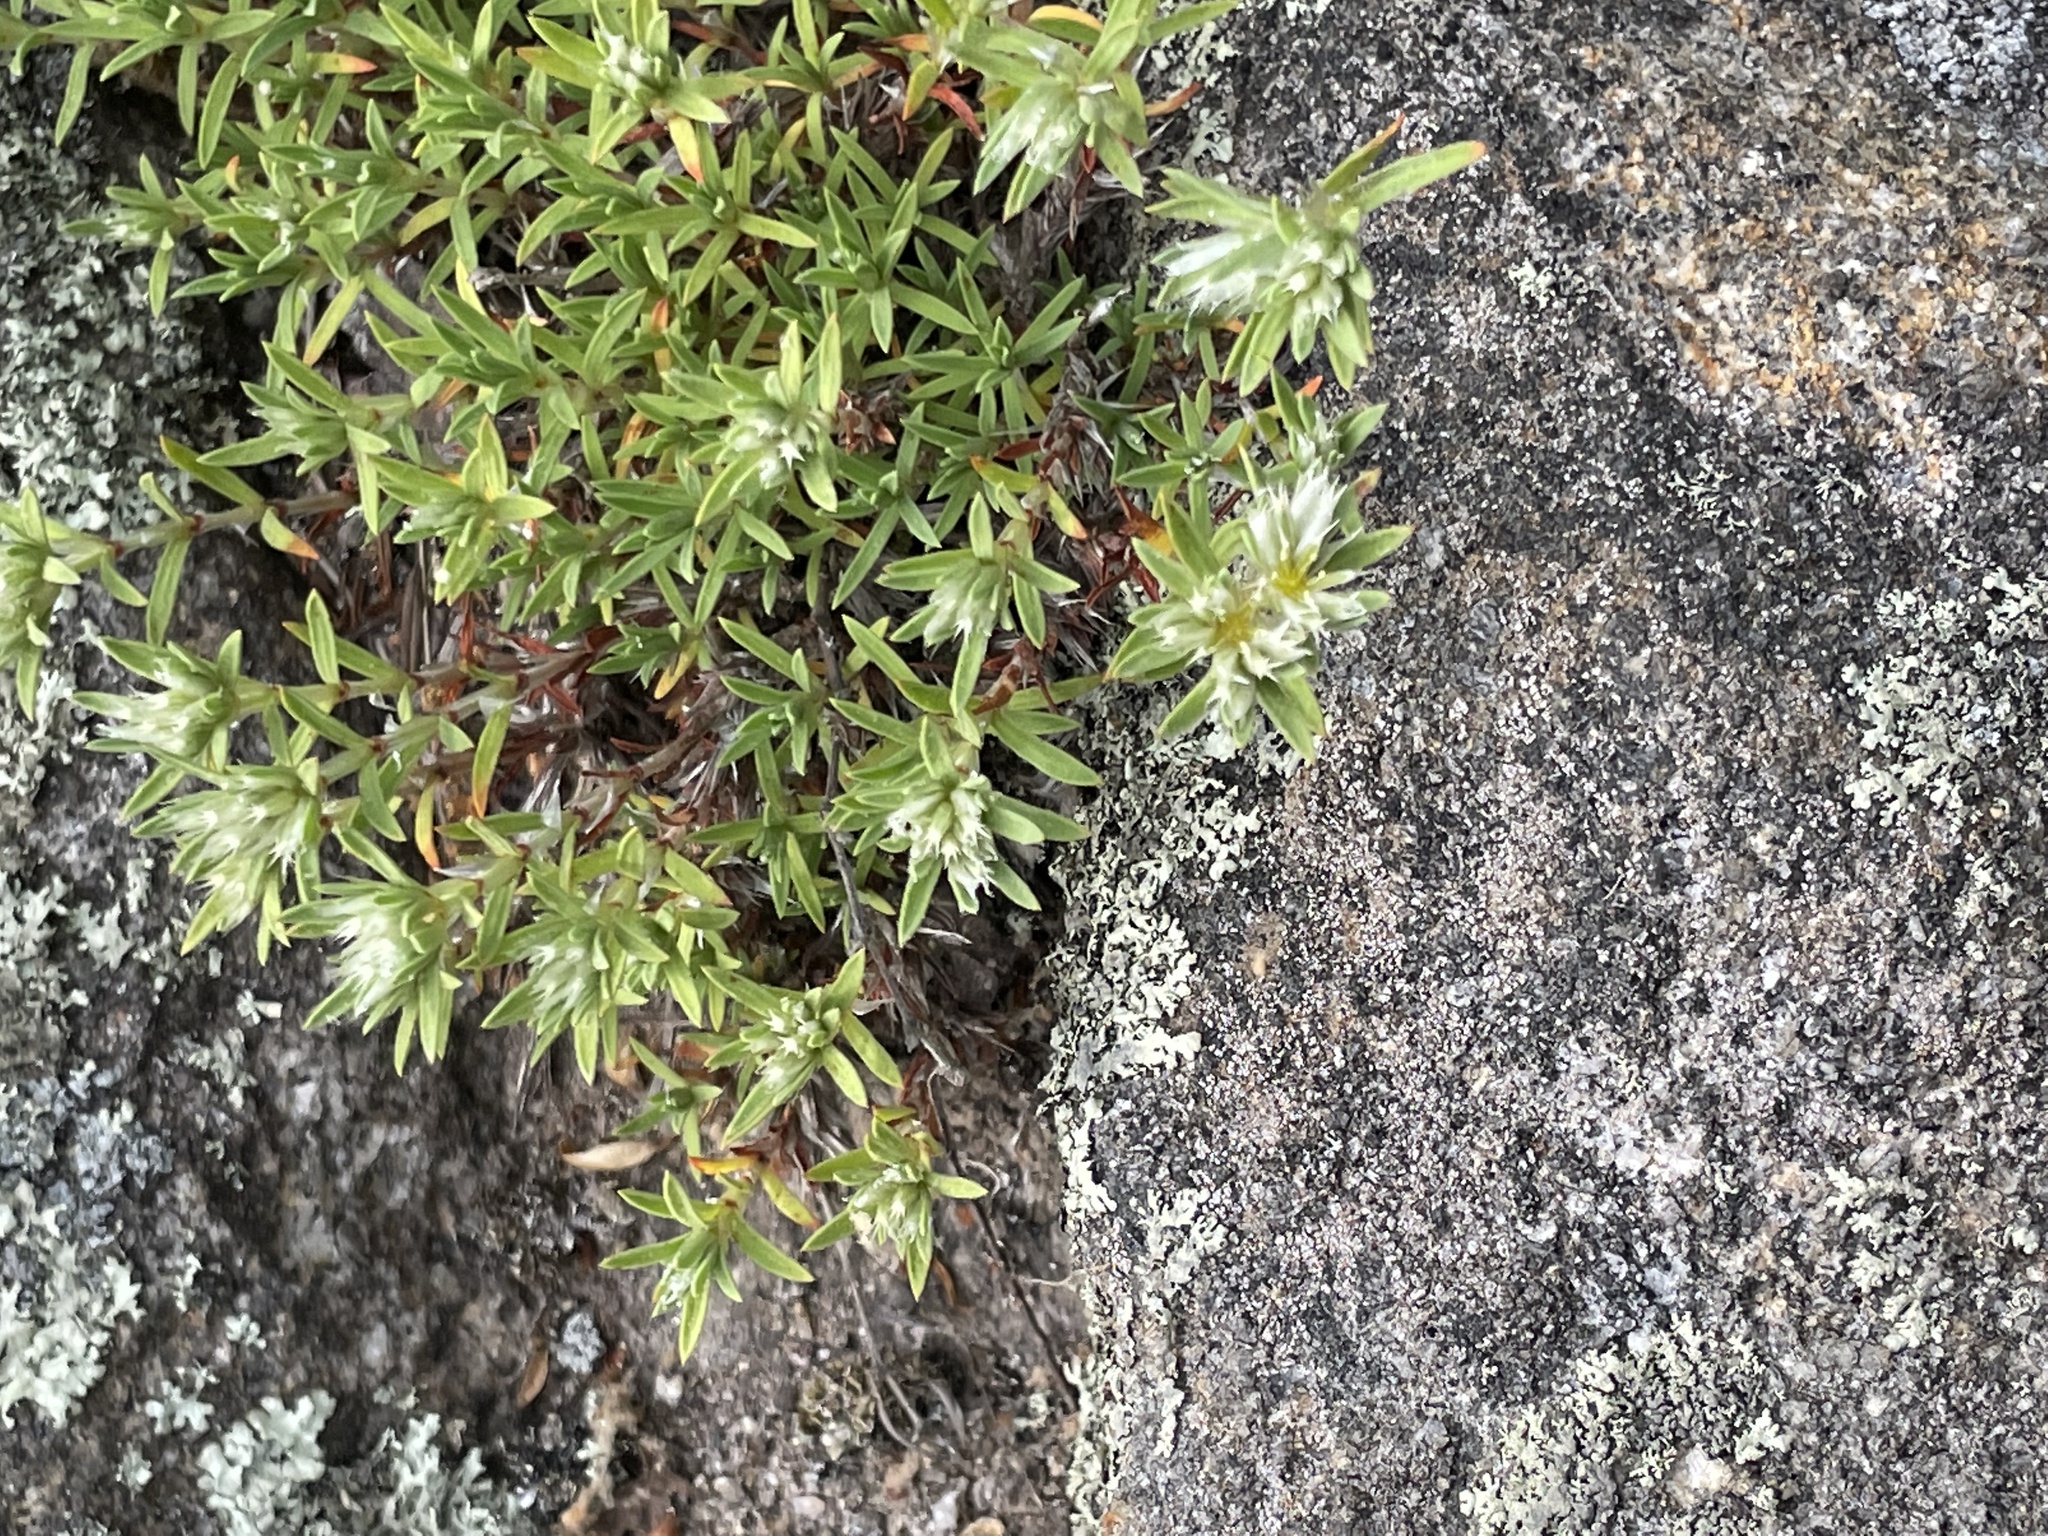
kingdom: Plantae
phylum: Tracheophyta
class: Magnoliopsida
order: Caryophyllales
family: Caryophyllaceae
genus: Paronychia
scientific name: Paronychia argyrocoma
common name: Silverling
